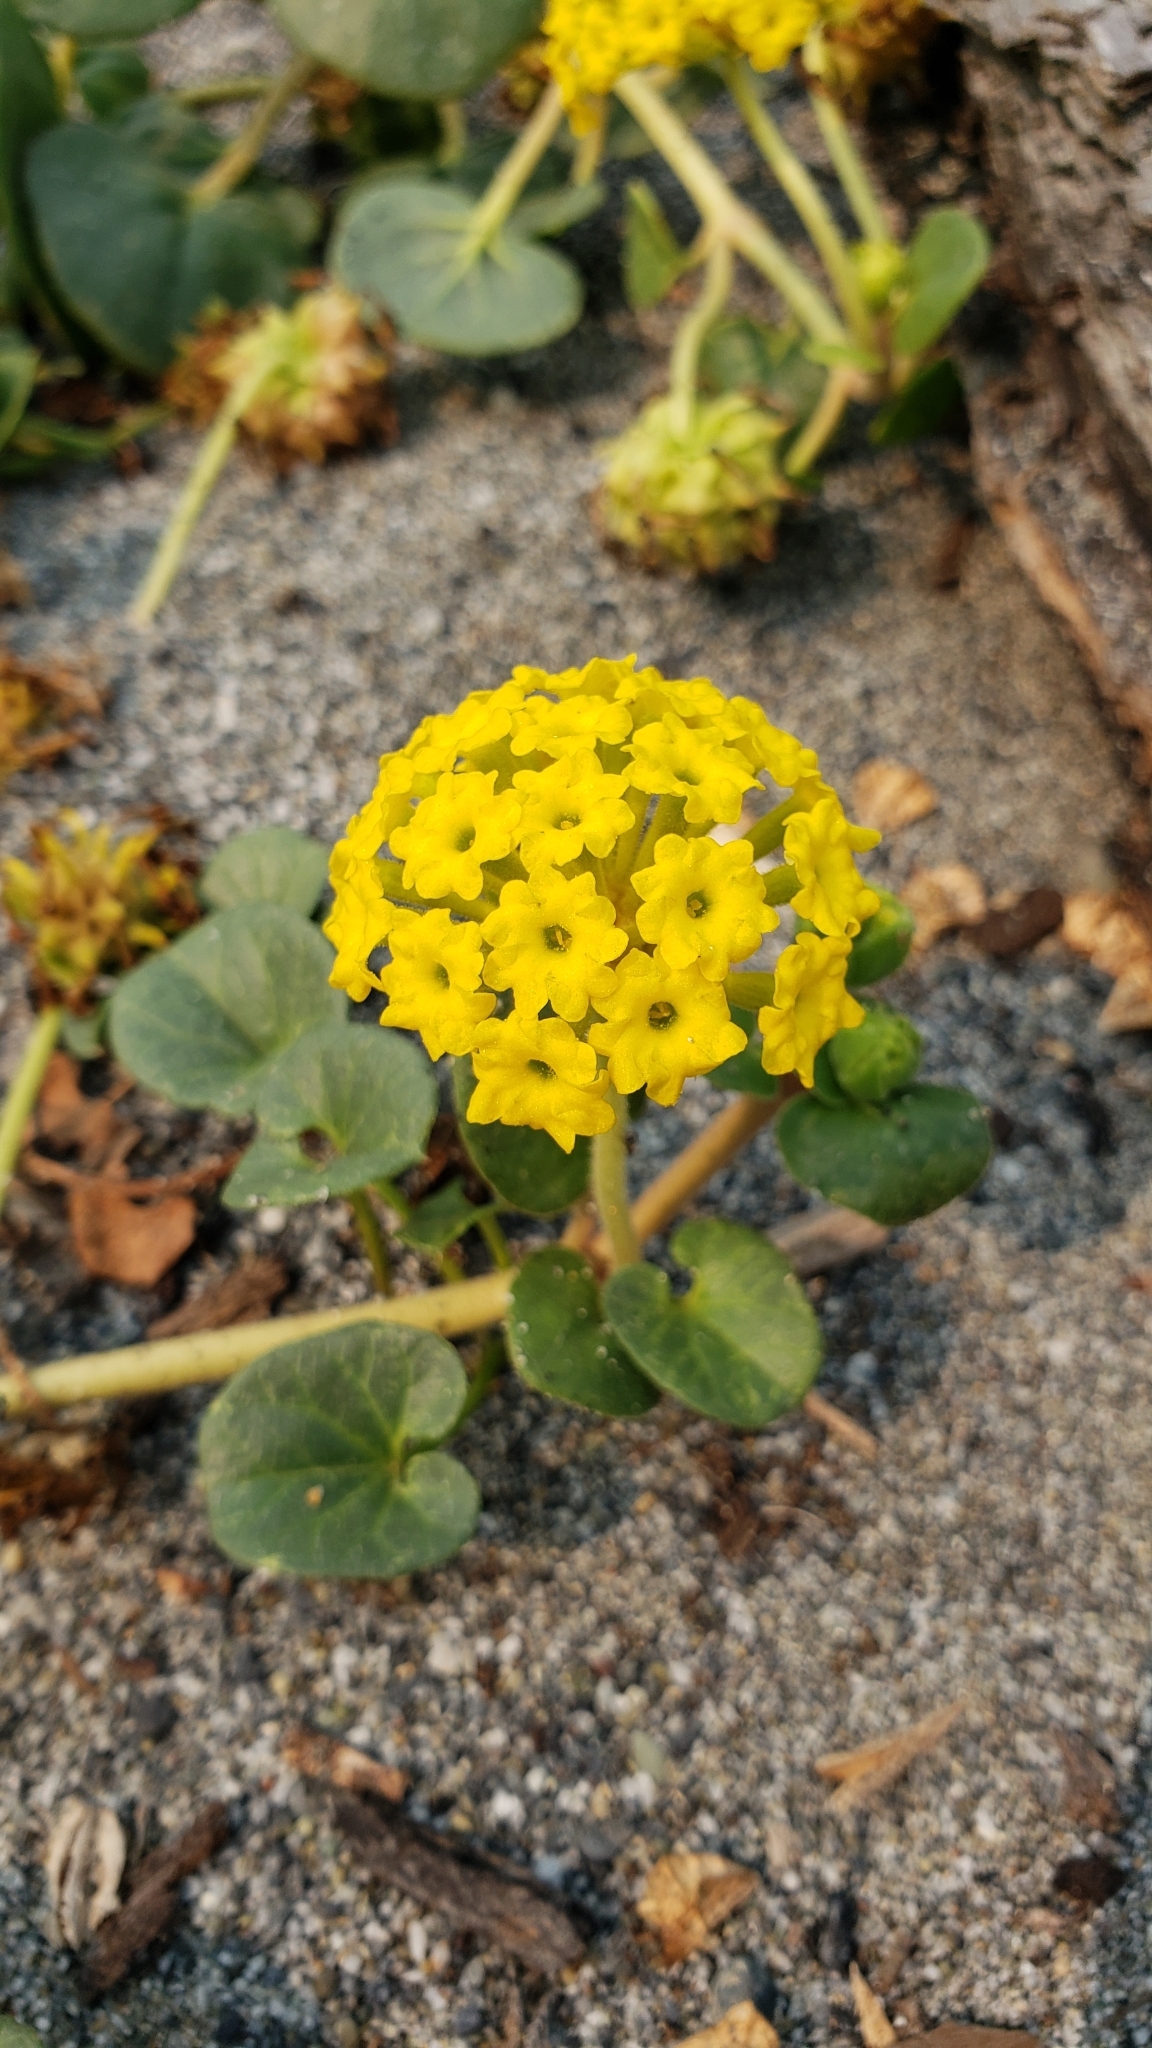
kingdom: Plantae
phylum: Tracheophyta
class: Magnoliopsida
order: Caryophyllales
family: Nyctaginaceae
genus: Abronia
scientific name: Abronia latifolia
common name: Yellow sand-verbena
